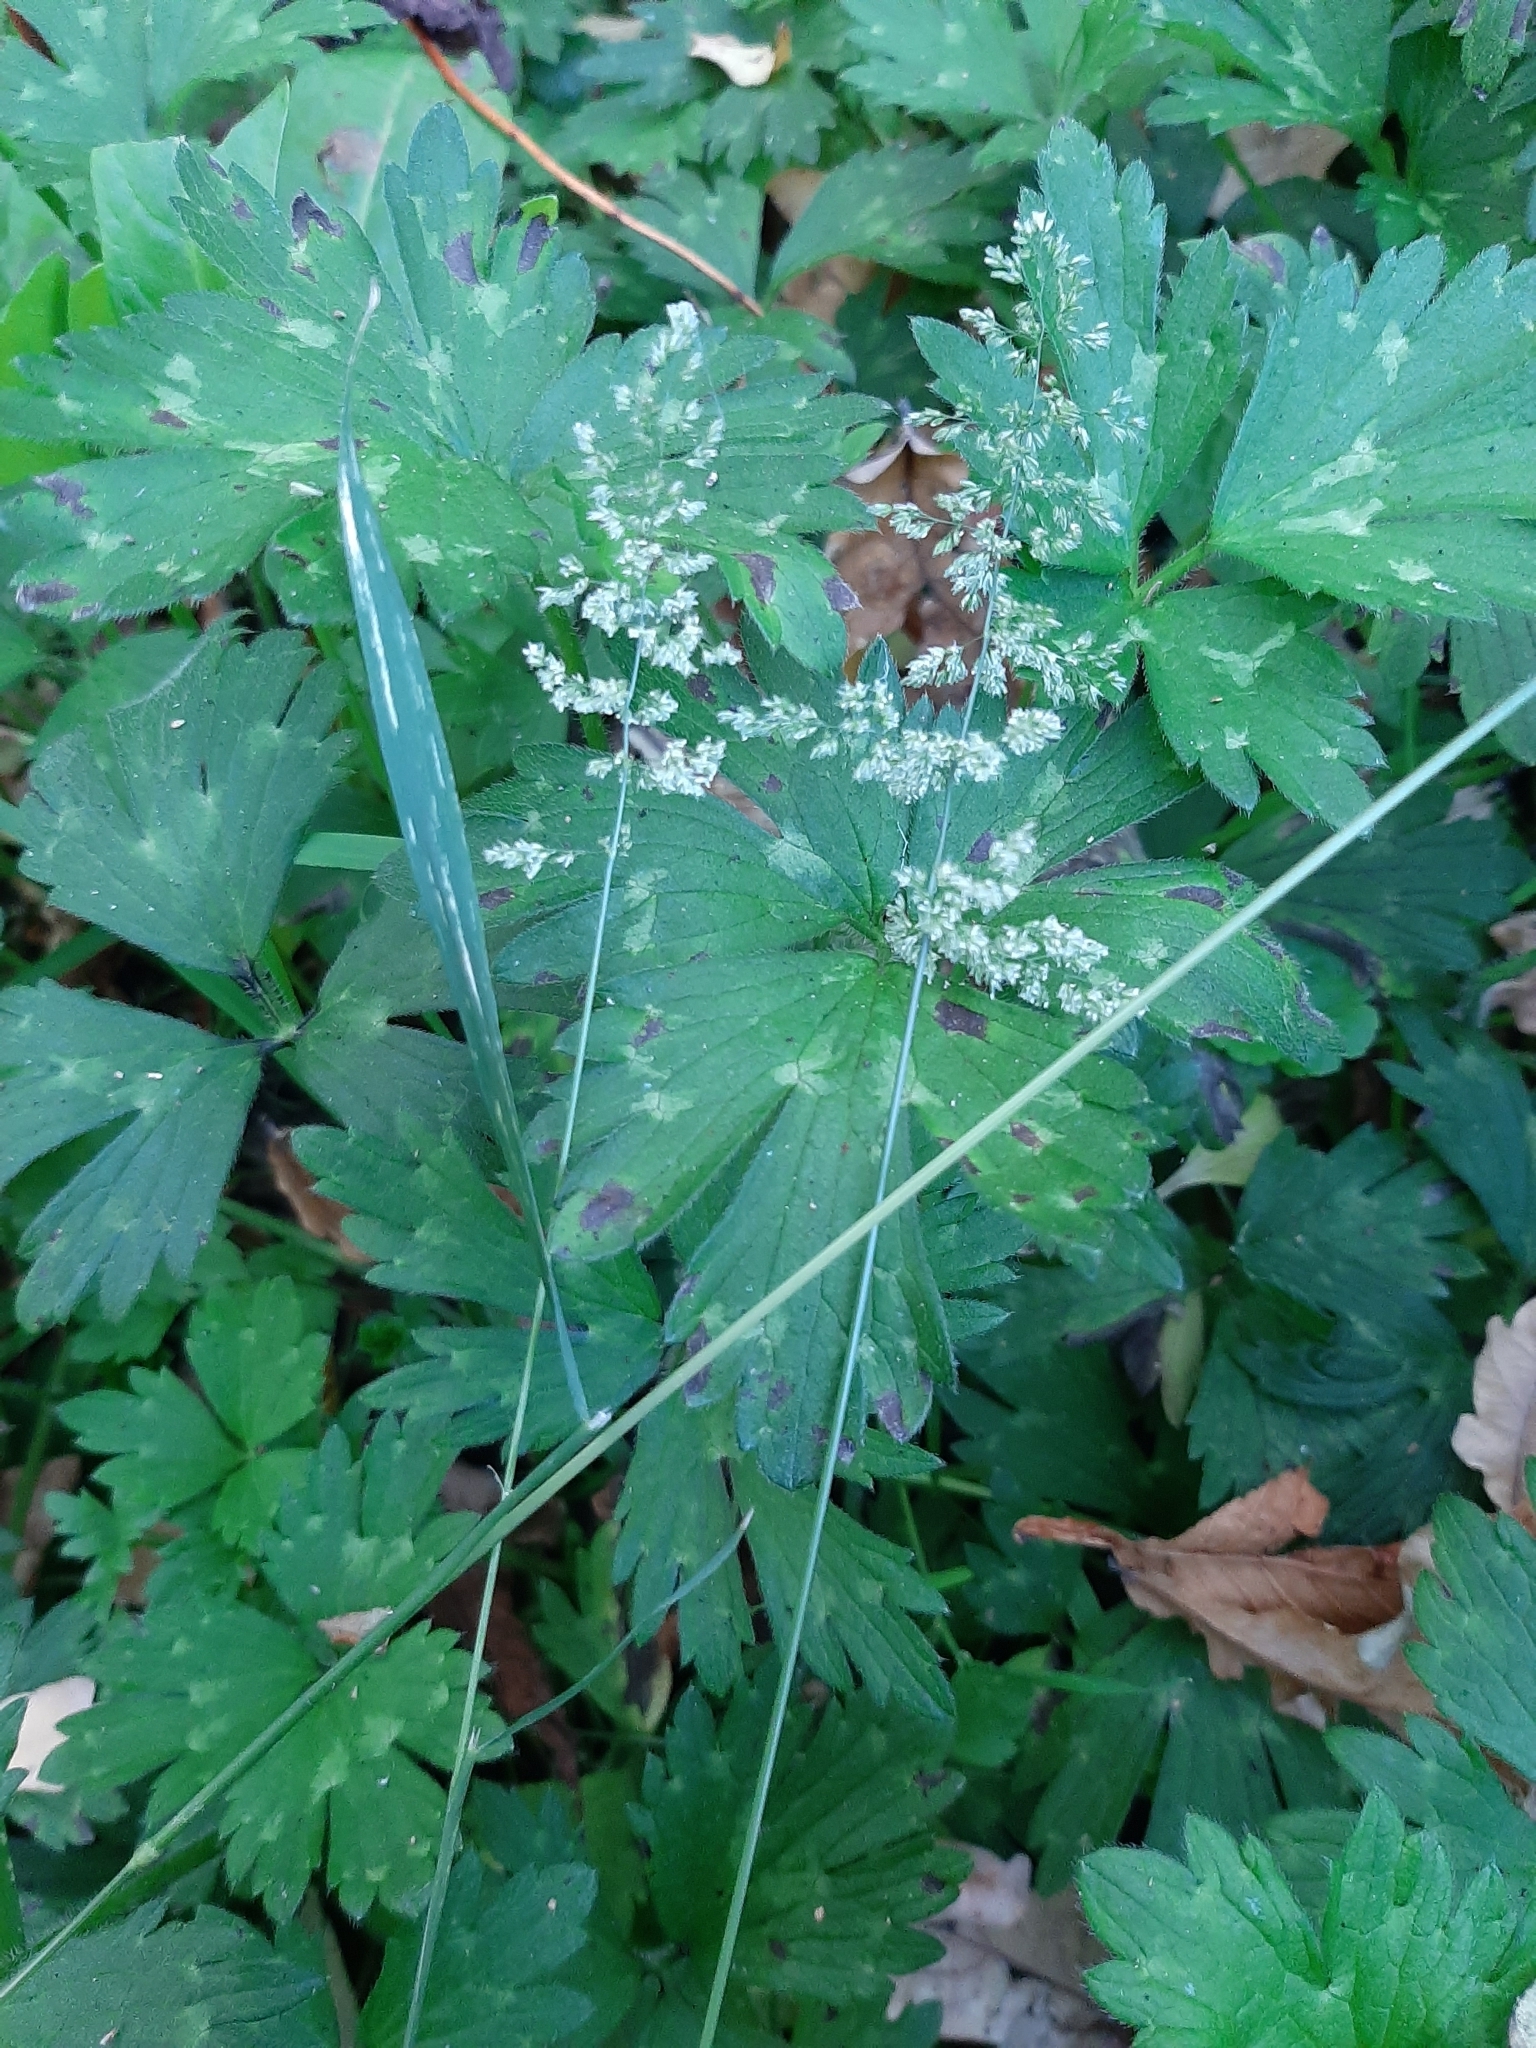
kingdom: Plantae
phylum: Tracheophyta
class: Liliopsida
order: Poales
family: Poaceae
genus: Agrostis
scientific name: Agrostis stolonifera
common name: Creeping bentgrass
